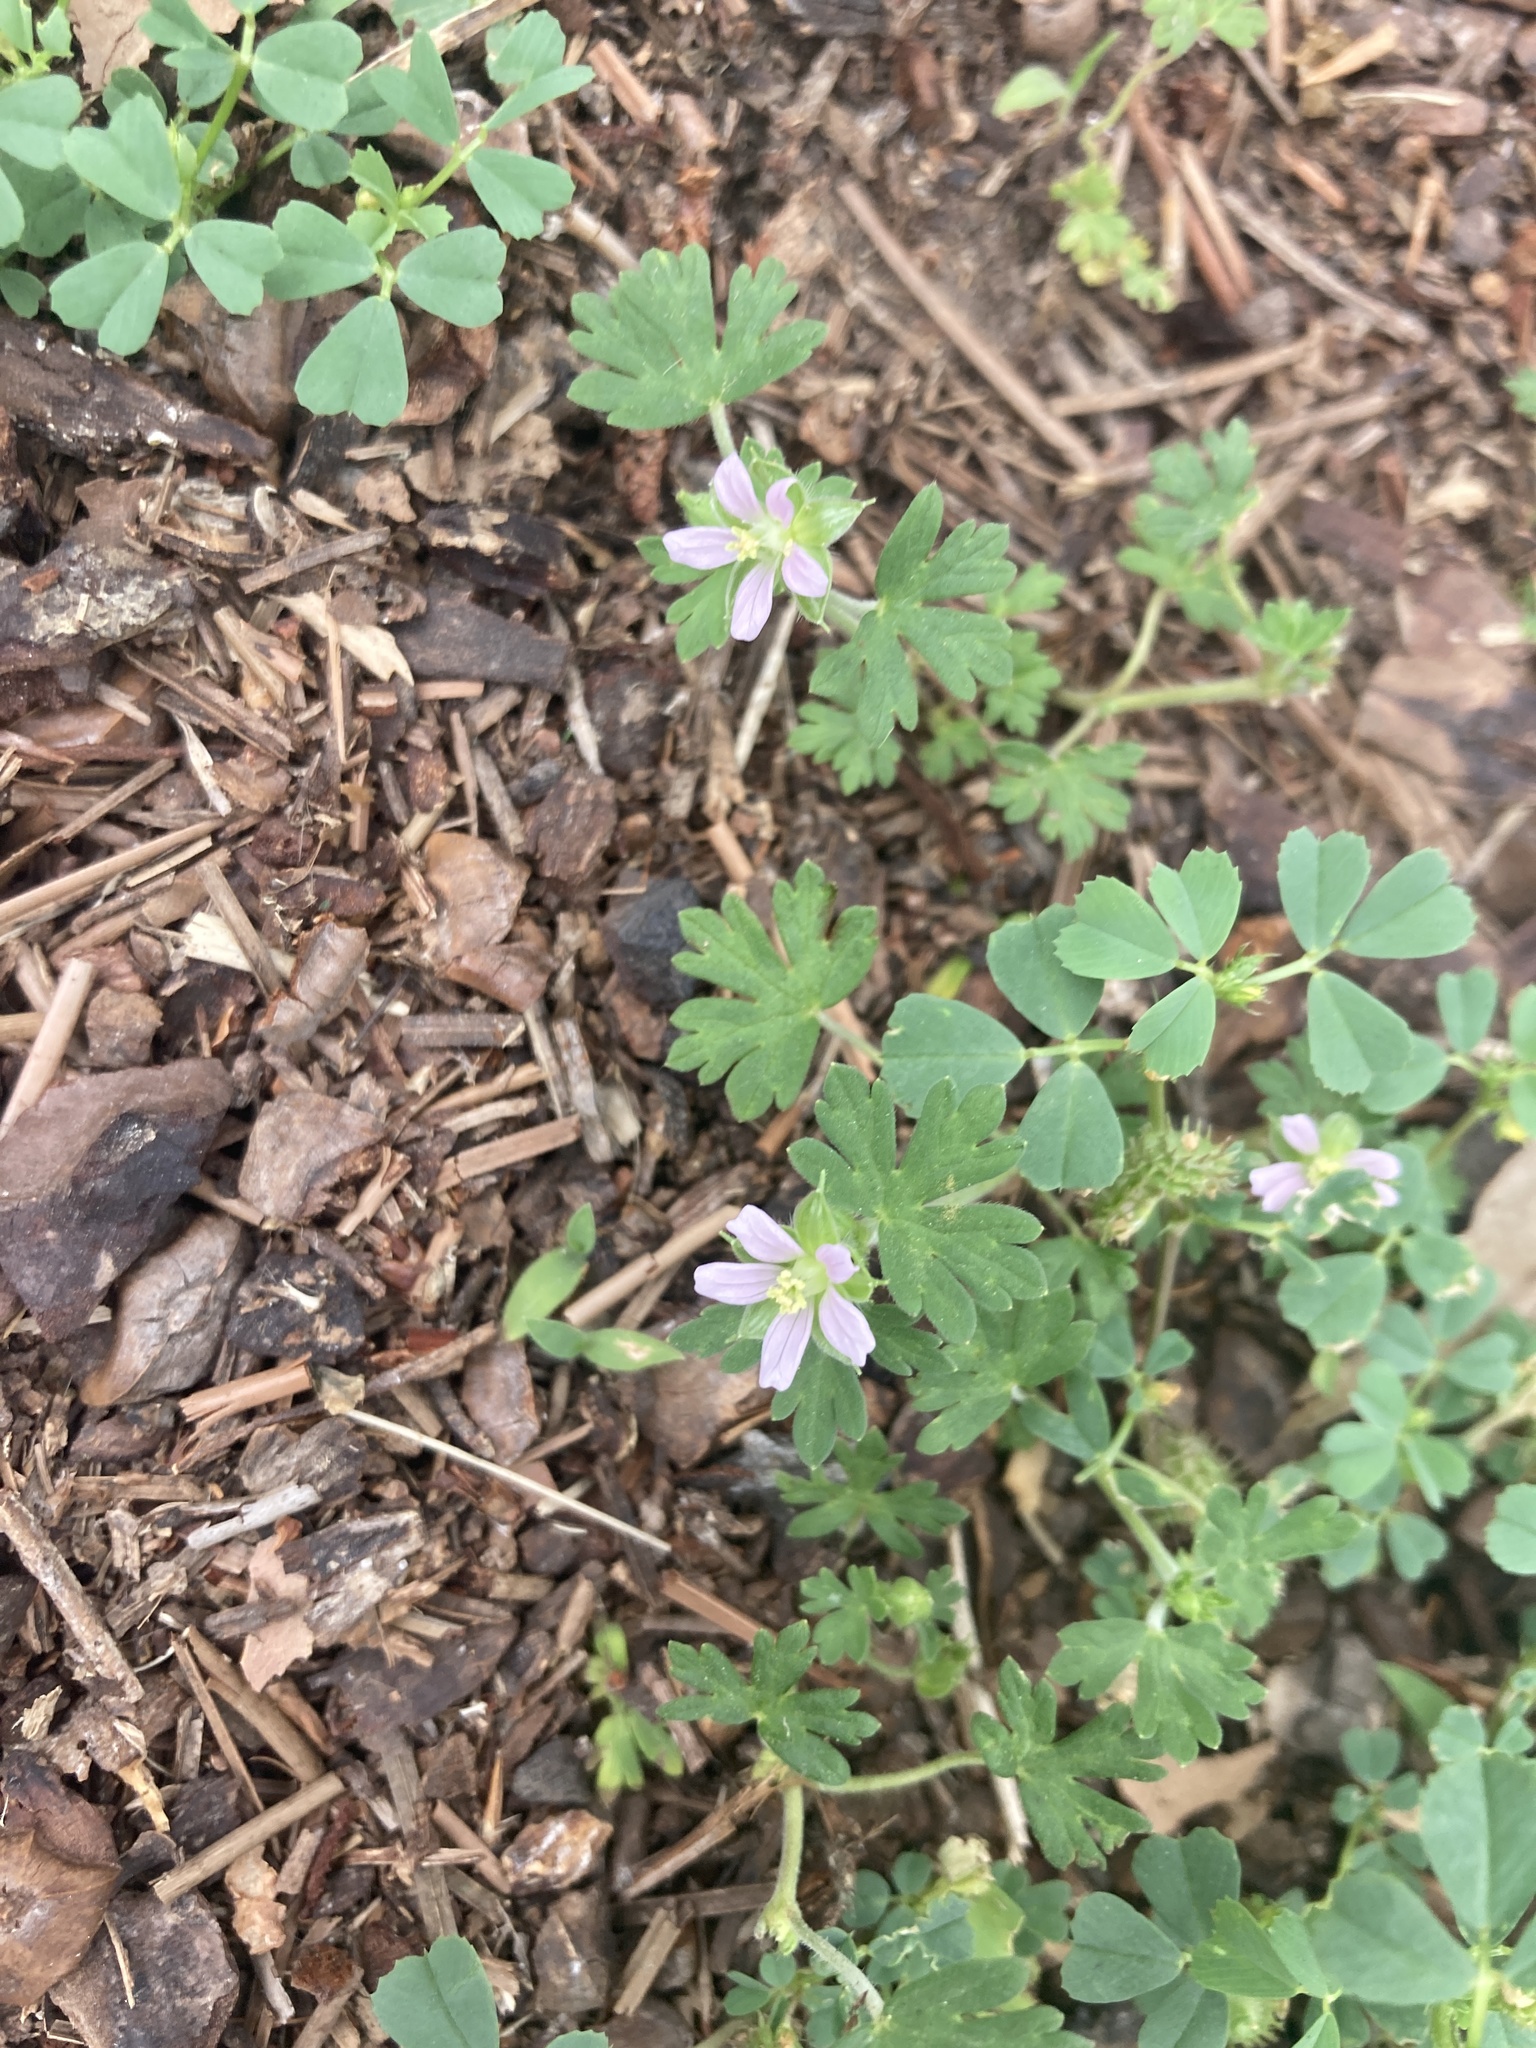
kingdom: Plantae
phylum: Tracheophyta
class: Magnoliopsida
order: Geraniales
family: Geraniaceae
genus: Geranium
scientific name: Geranium carolinianum
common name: Carolina crane's-bill
